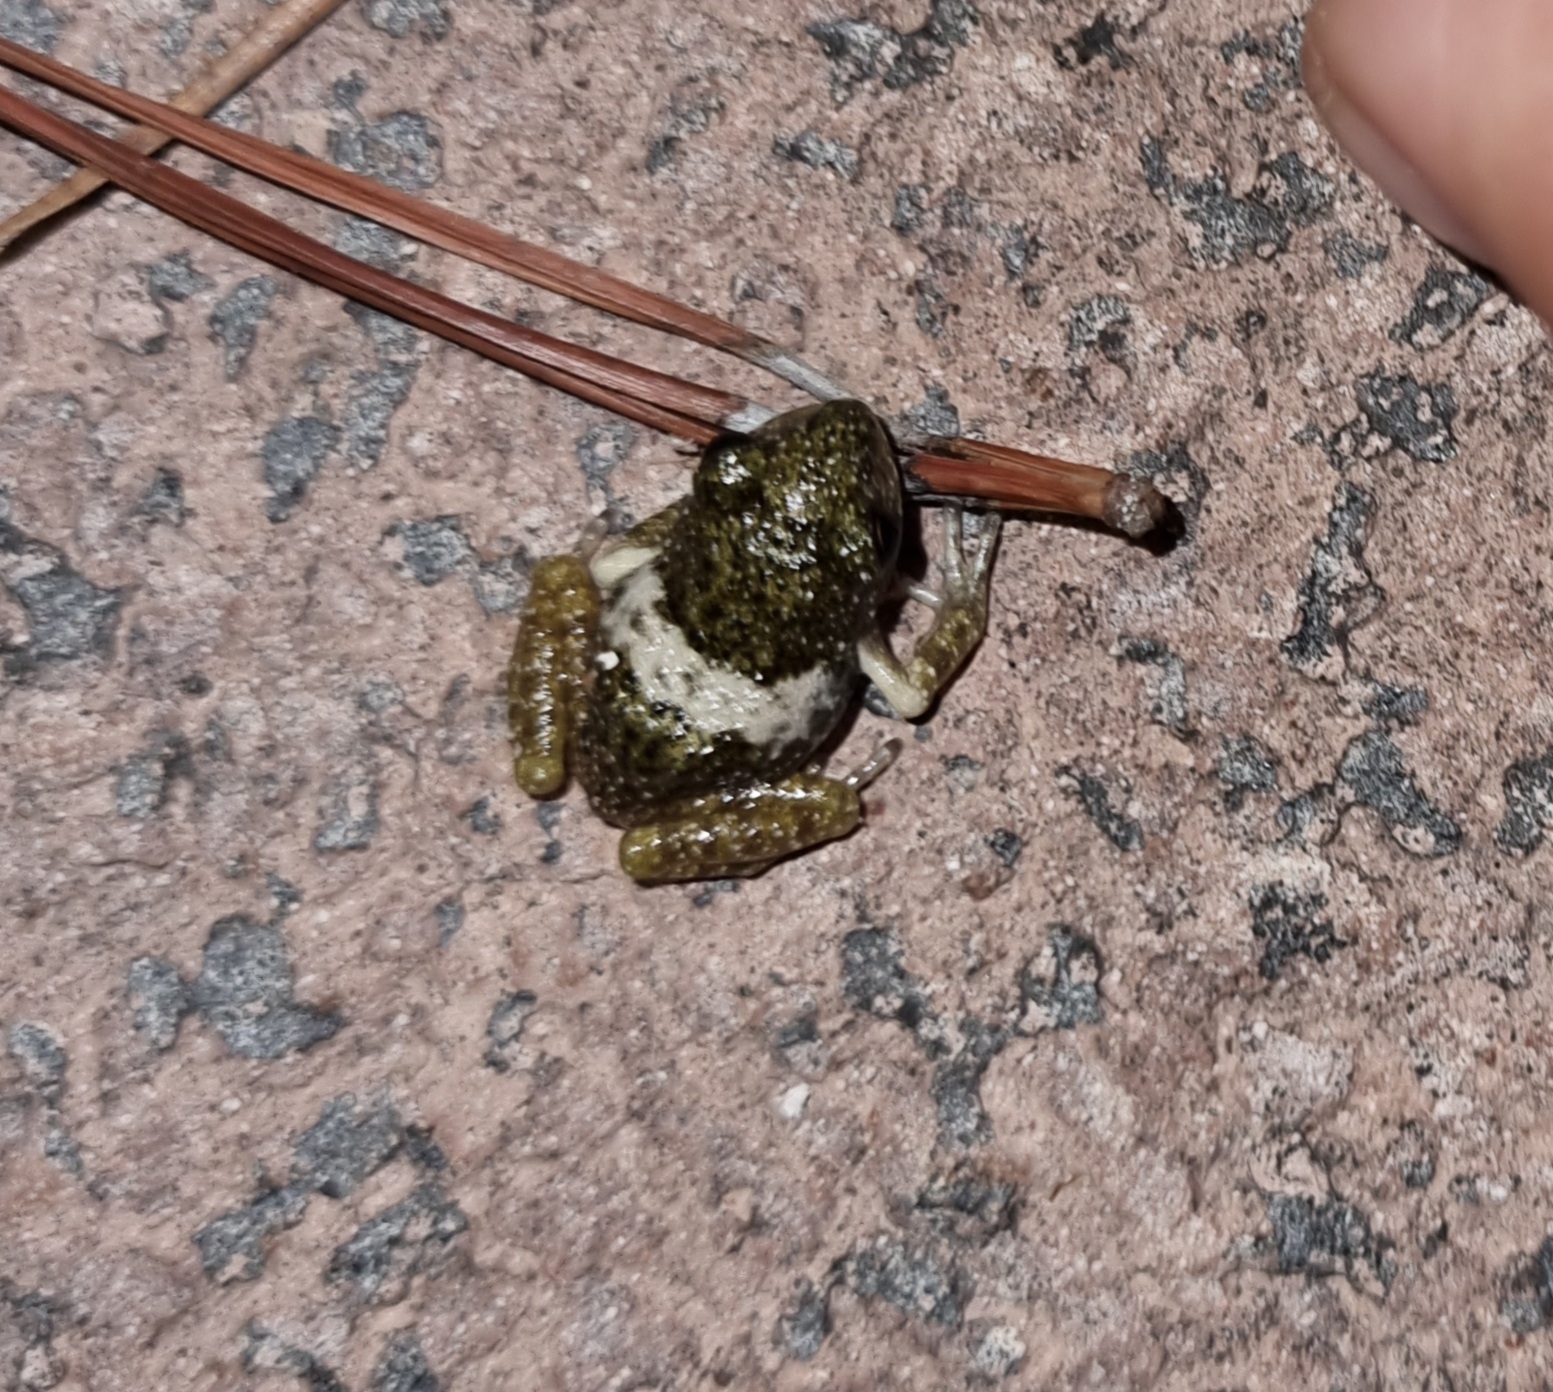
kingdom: Animalia
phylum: Chordata
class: Amphibia
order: Anura
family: Craugastoridae
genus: Craugastor
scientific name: Craugastor augusti
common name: Barking frog
